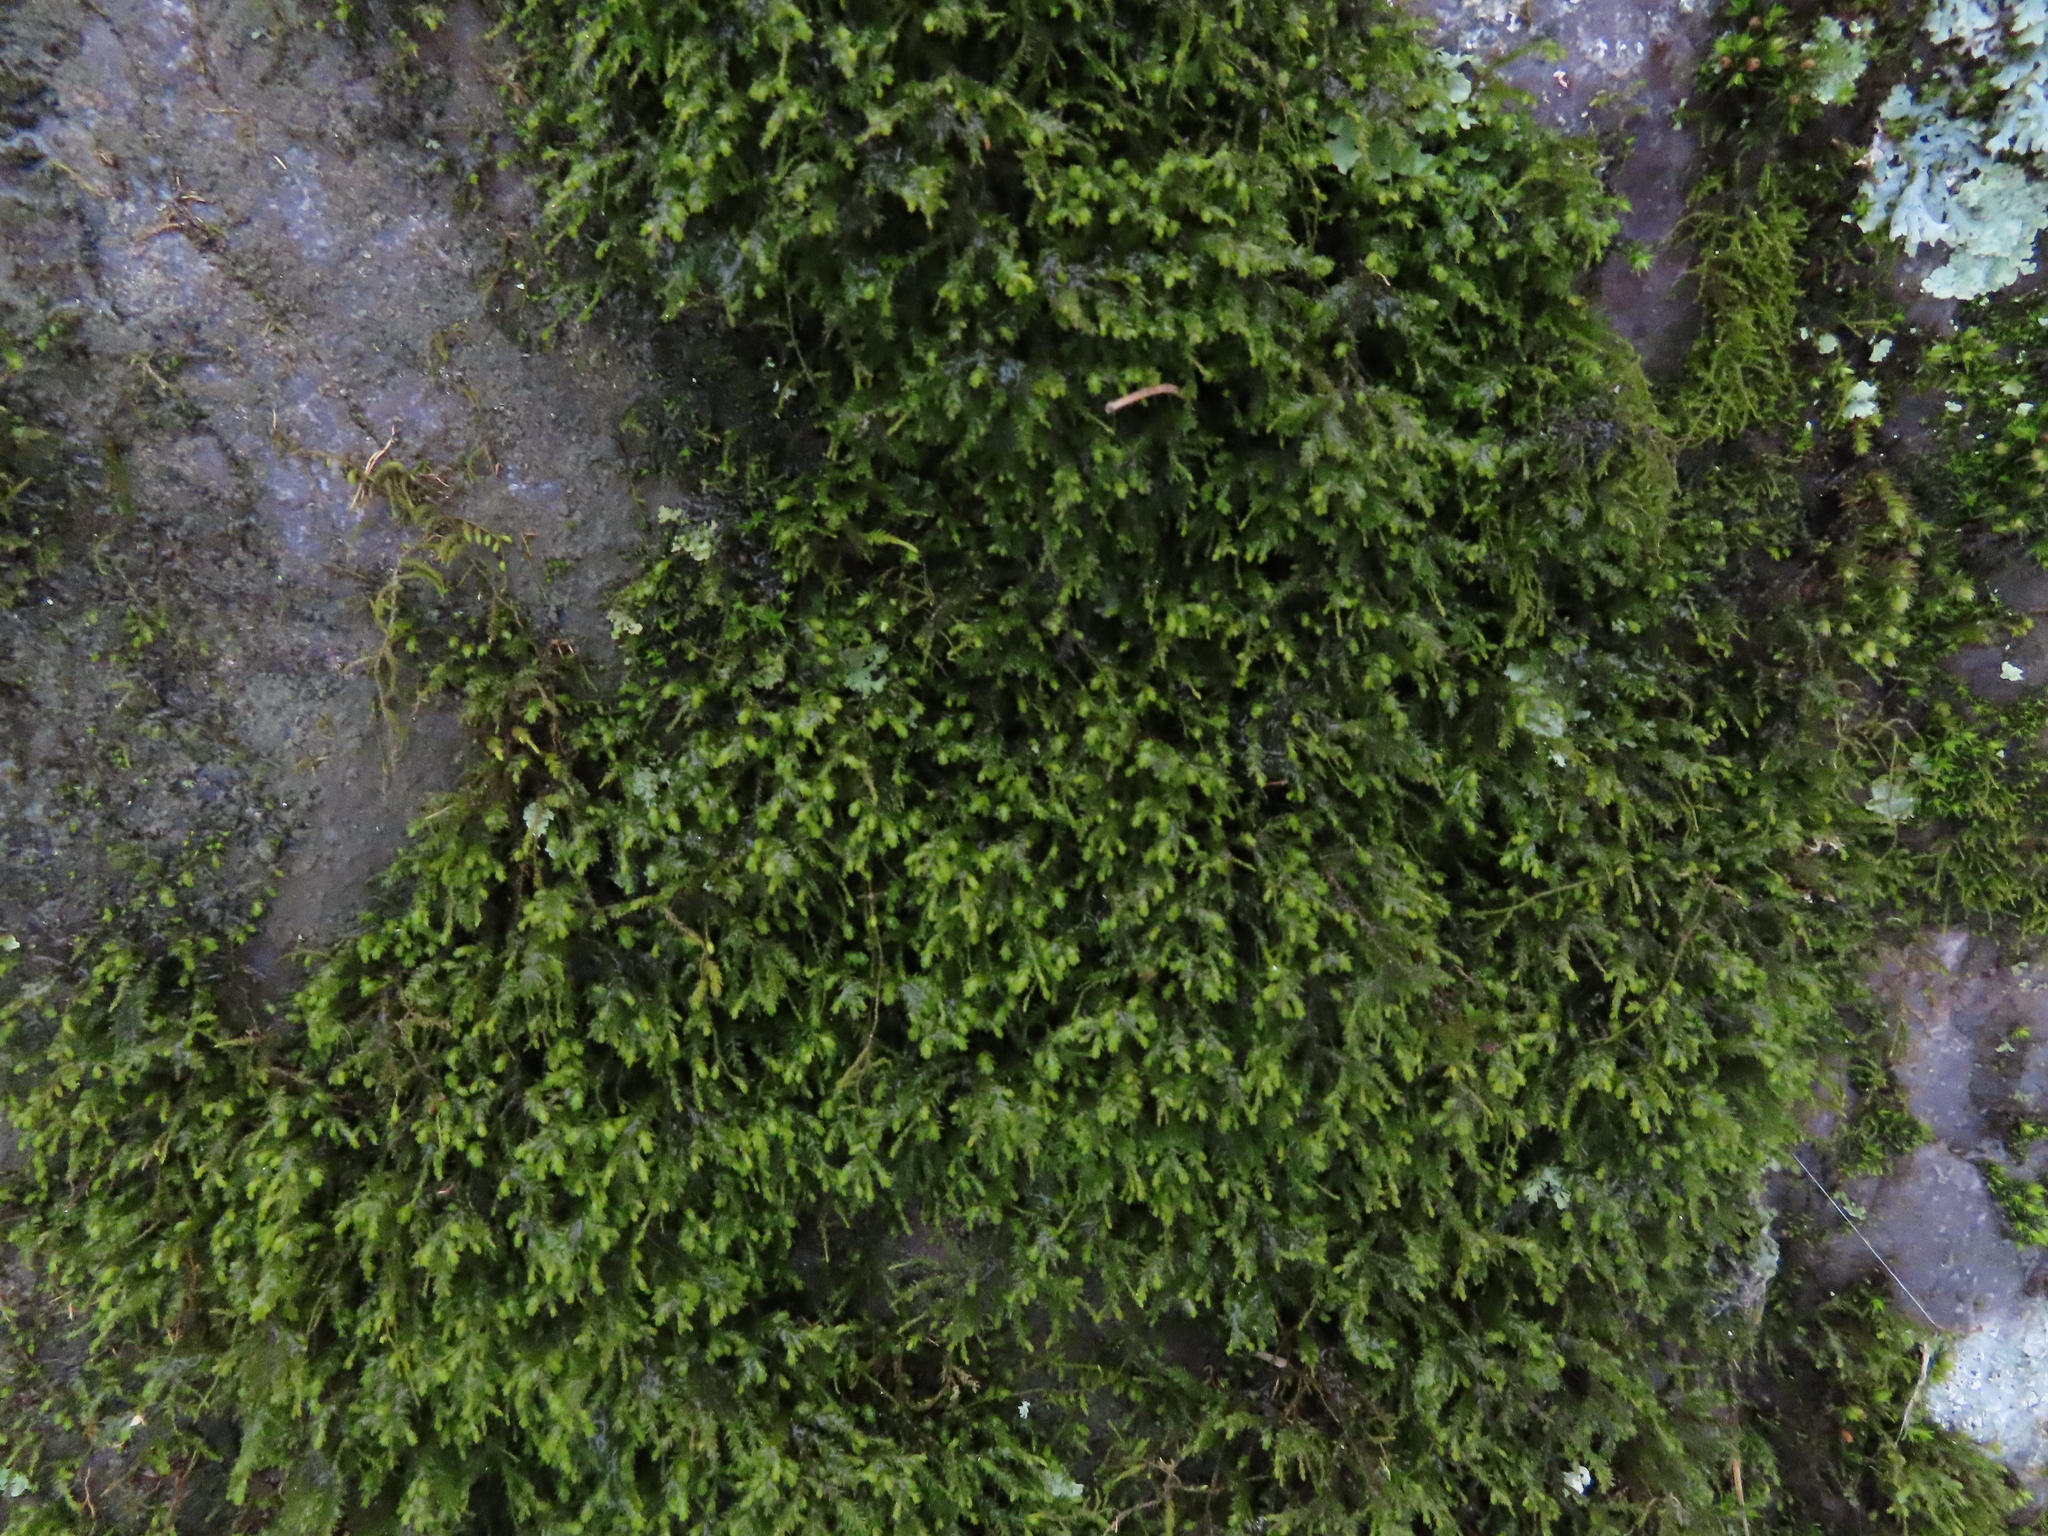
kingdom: Plantae
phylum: Bryophyta
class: Bryopsida
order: Hypnales
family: Neckeraceae
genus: Pseudanomodon
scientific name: Pseudanomodon attenuatus
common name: Tree-skirt moss
